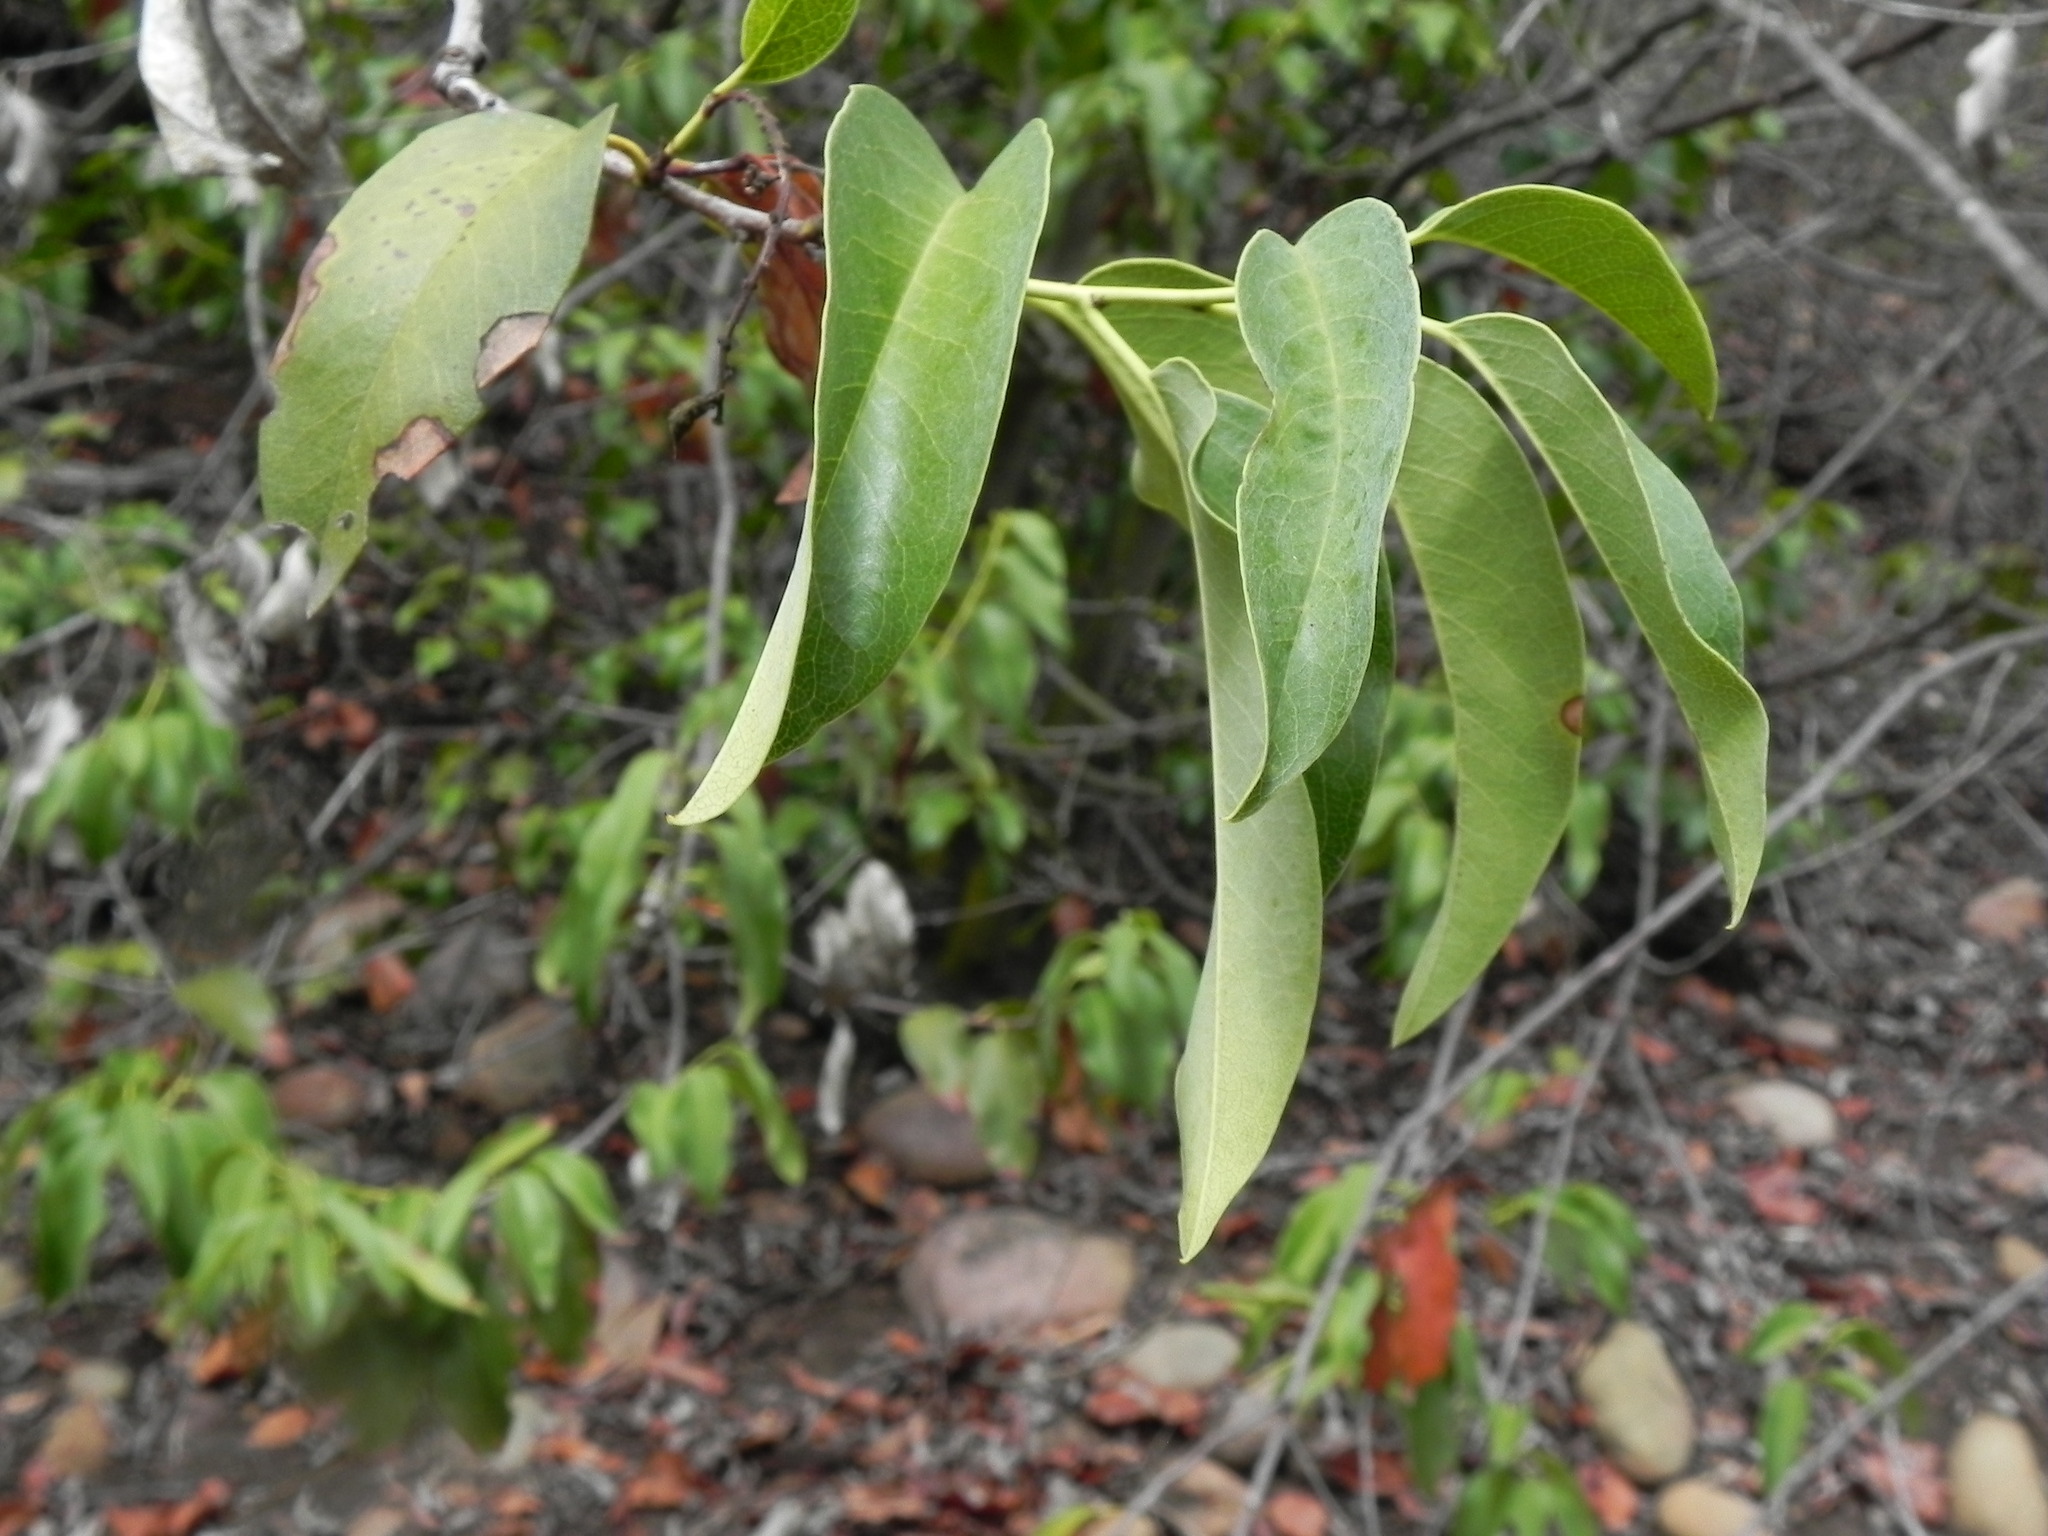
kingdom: Plantae
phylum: Tracheophyta
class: Magnoliopsida
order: Rosales
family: Rosaceae
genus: Prunus
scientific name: Prunus ilicifolia
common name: Hollyleaf cherry
